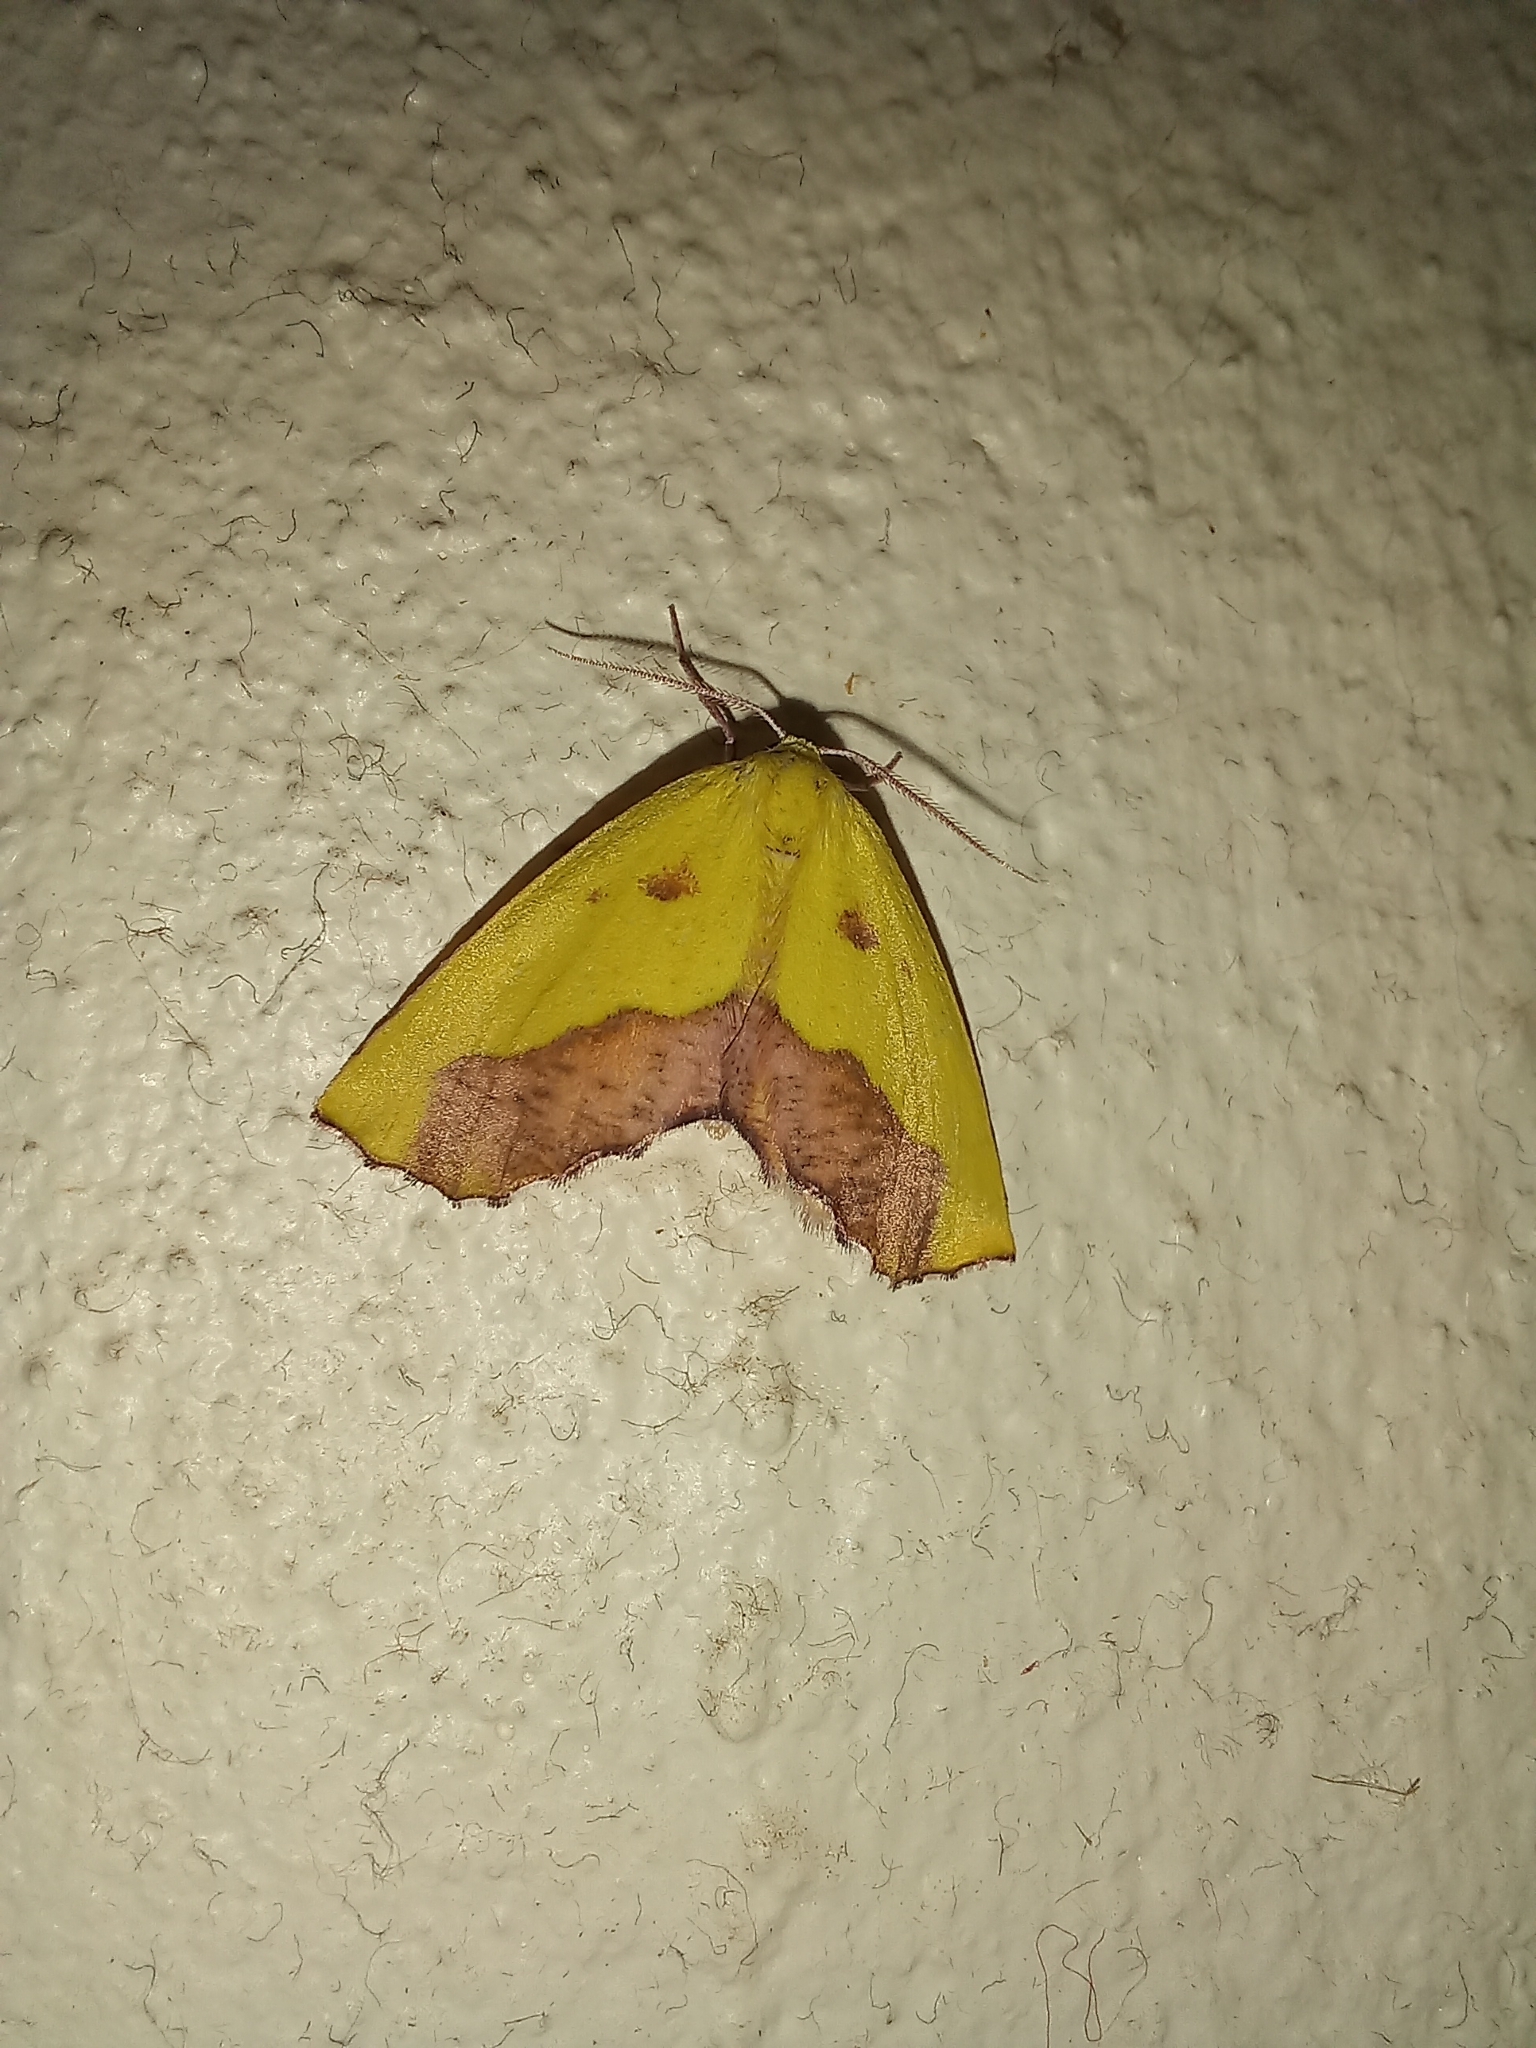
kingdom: Animalia
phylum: Arthropoda
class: Insecta
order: Lepidoptera
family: Geometridae
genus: Sicyodes
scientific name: Sicyodes cambogiaria
